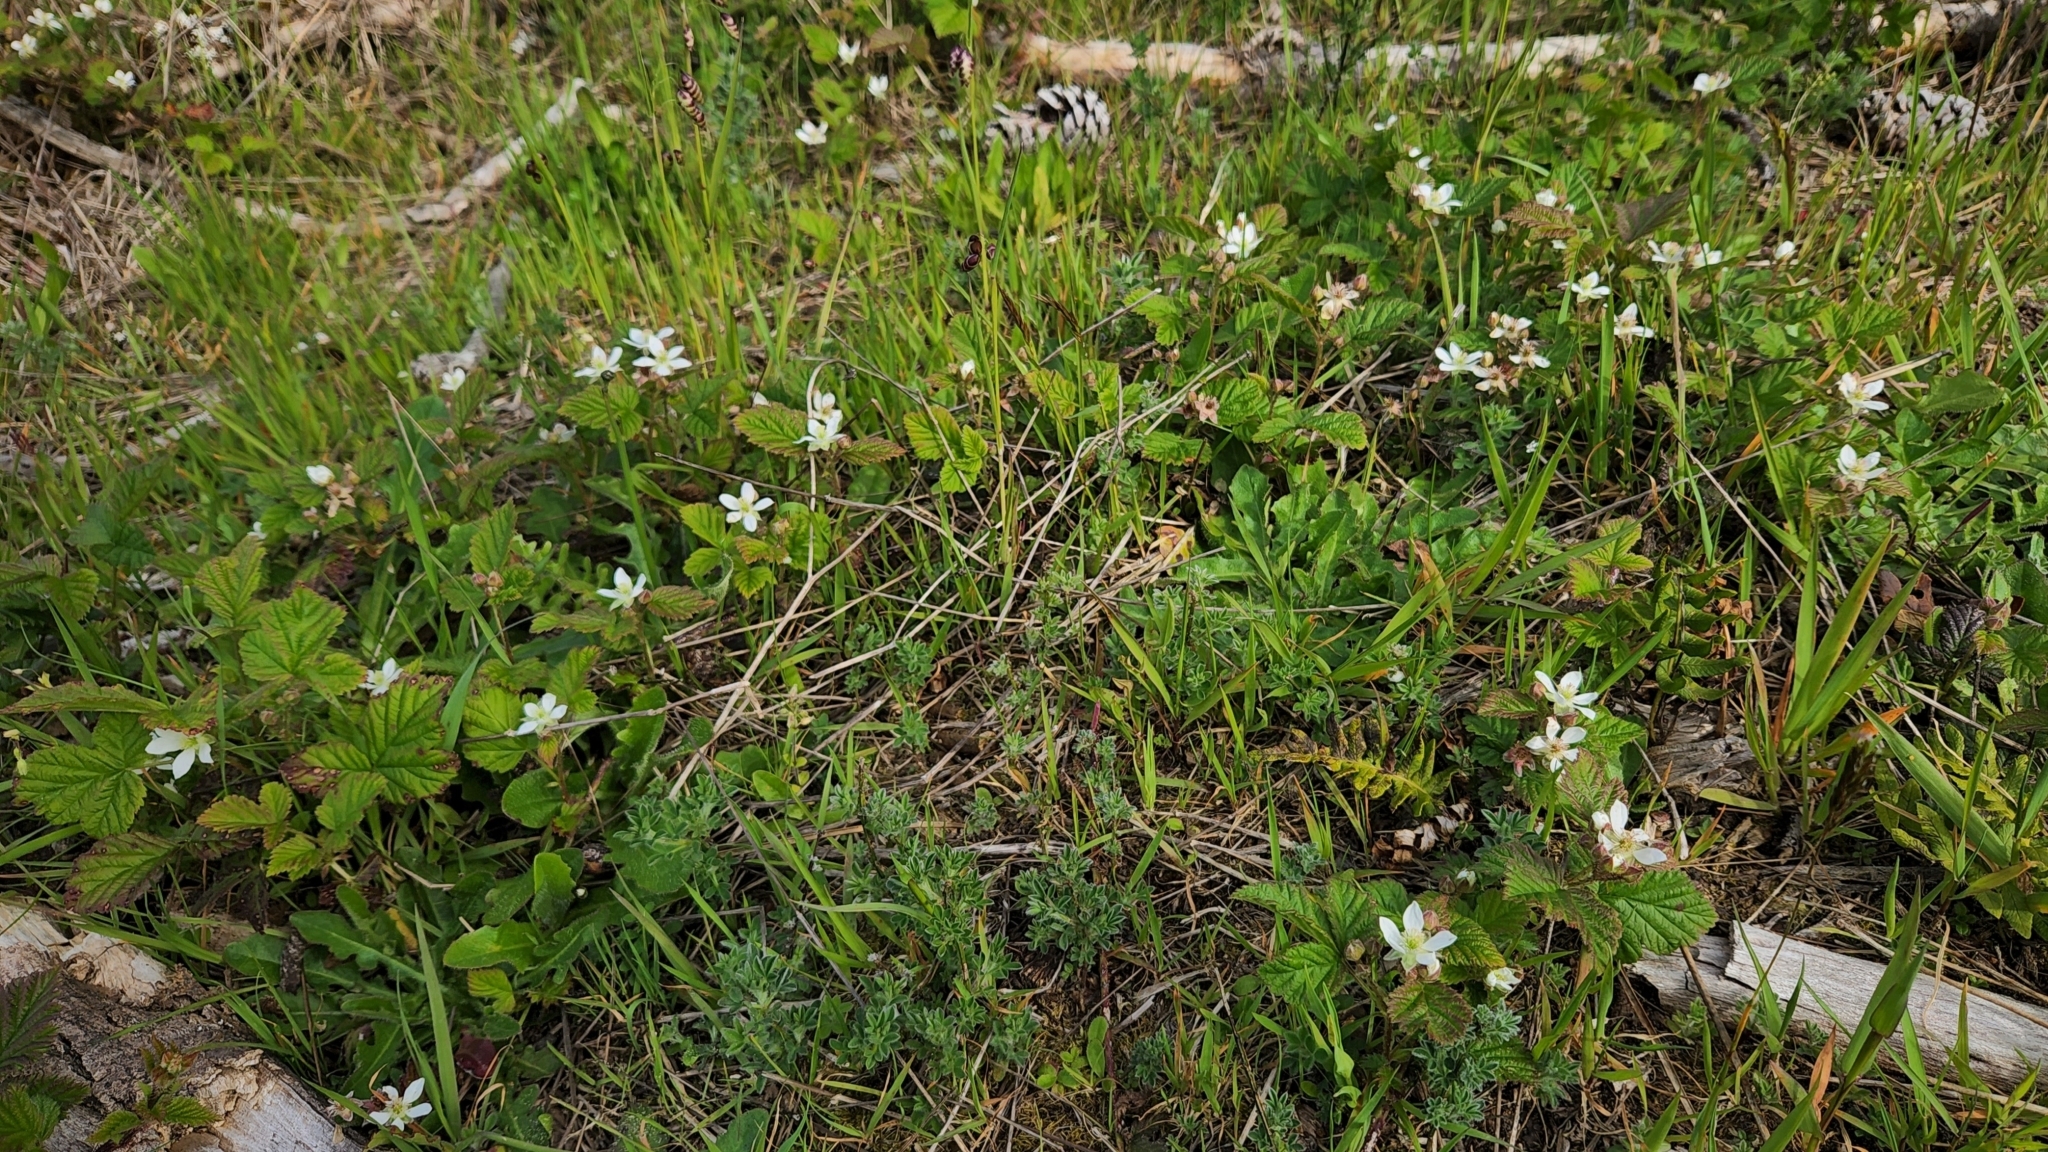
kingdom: Plantae
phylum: Tracheophyta
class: Magnoliopsida
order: Rosales
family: Rosaceae
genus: Rubus
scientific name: Rubus ursinus
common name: Pacific blackberry
